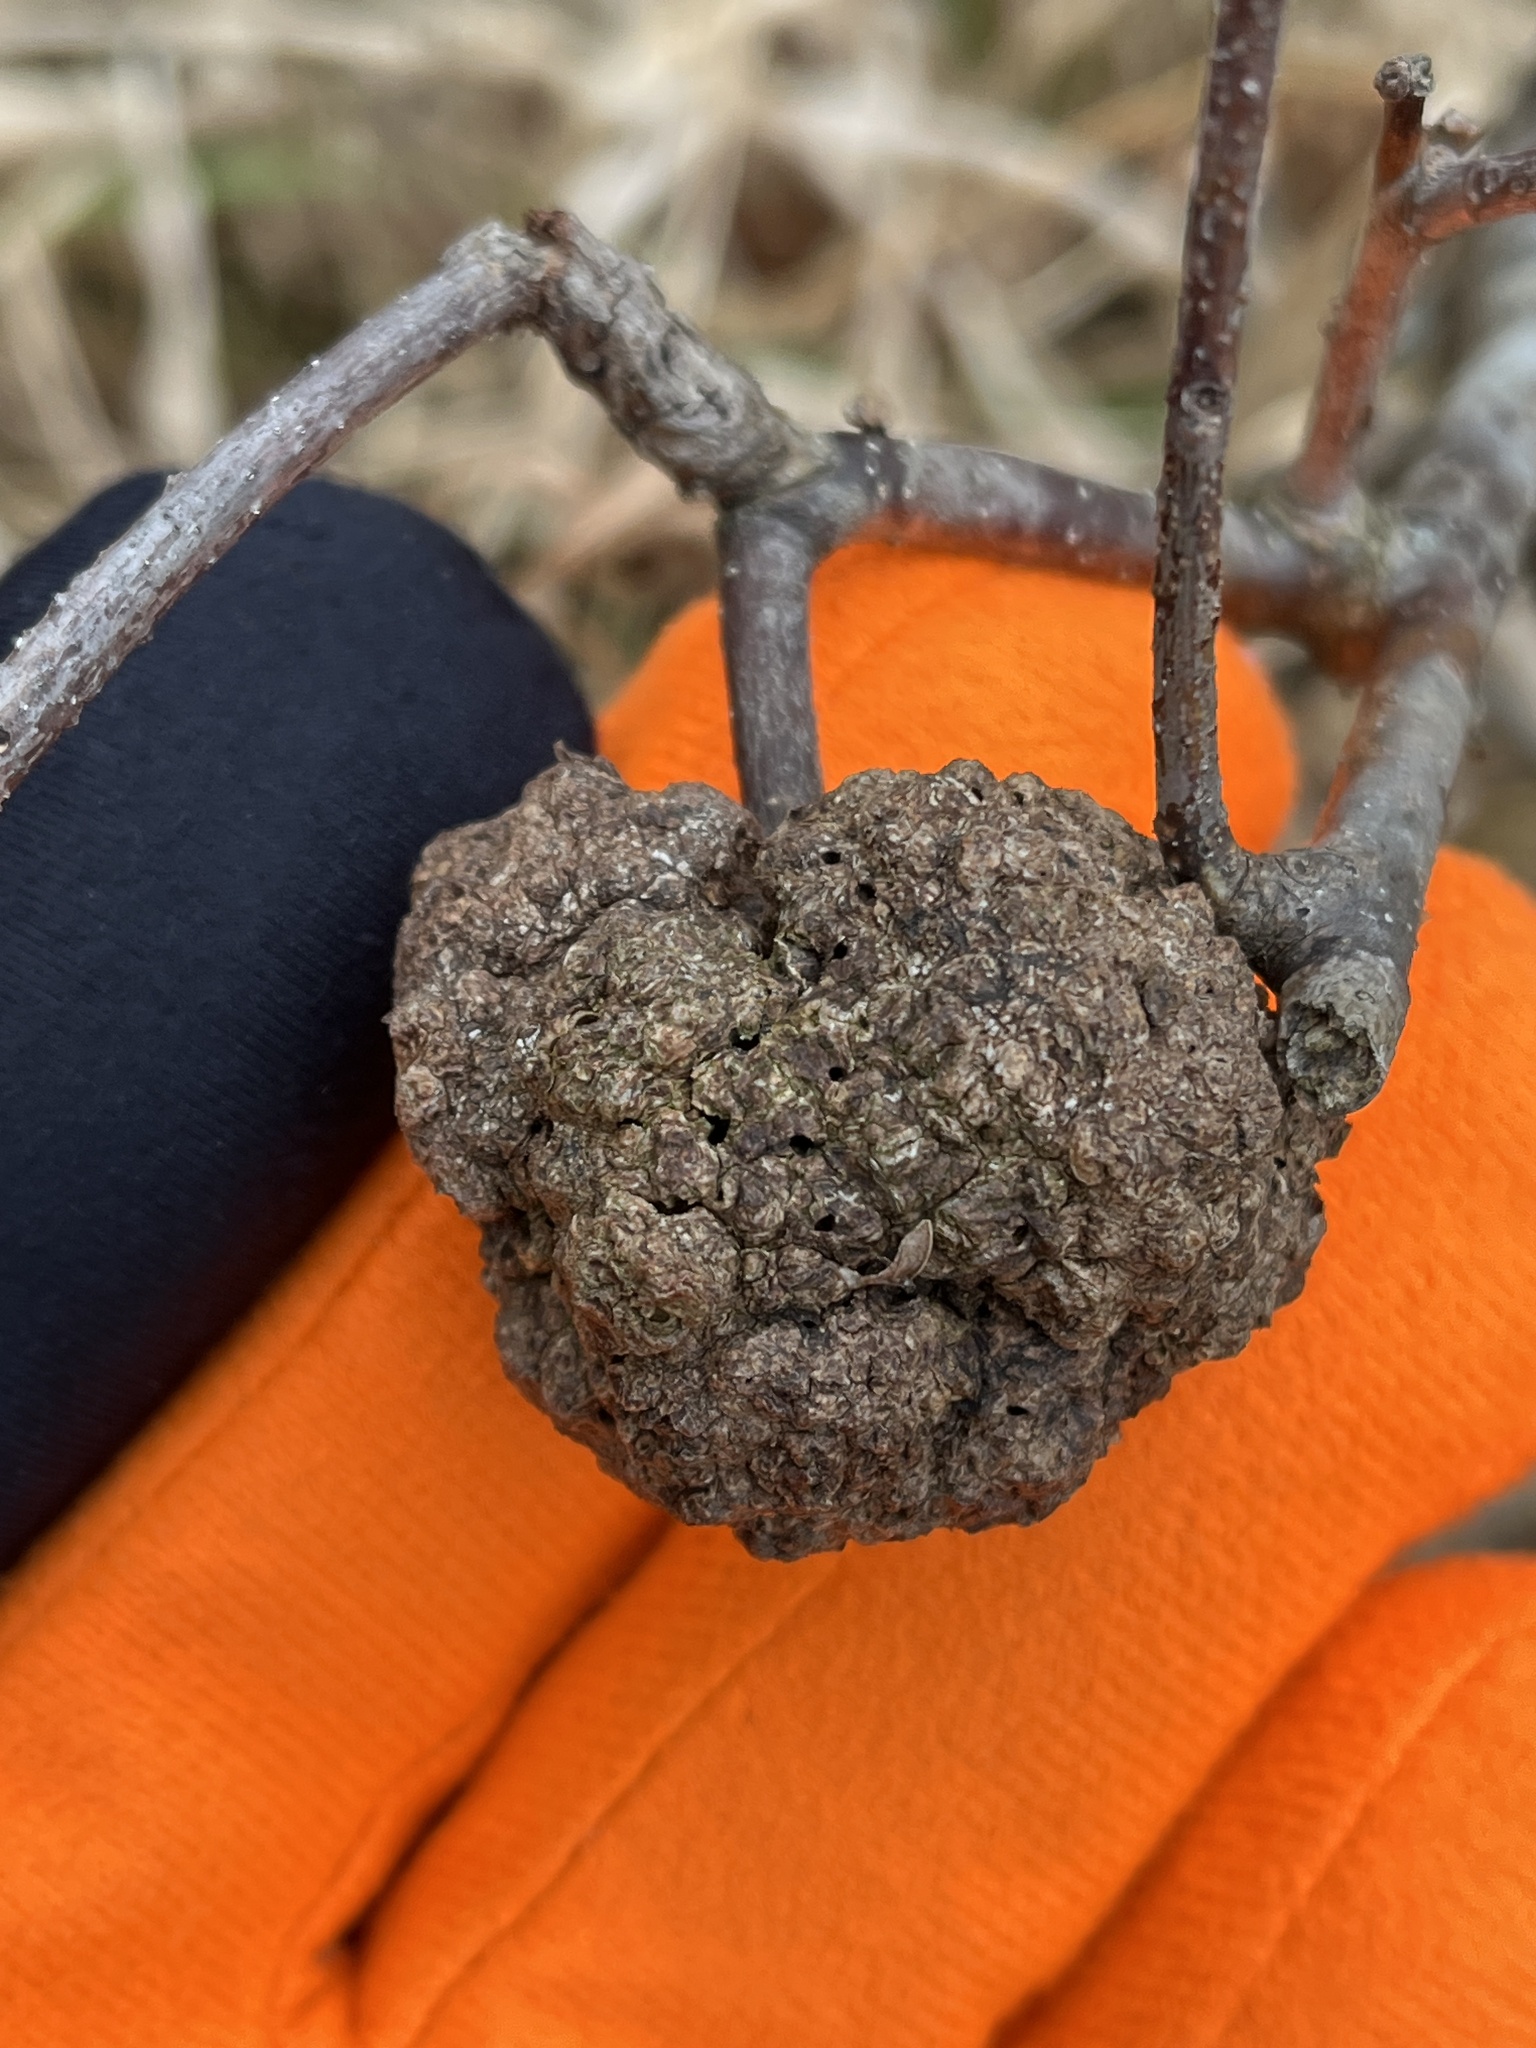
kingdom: Animalia
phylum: Arthropoda
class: Insecta
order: Hymenoptera
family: Cynipidae
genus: Callirhytis
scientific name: Callirhytis
